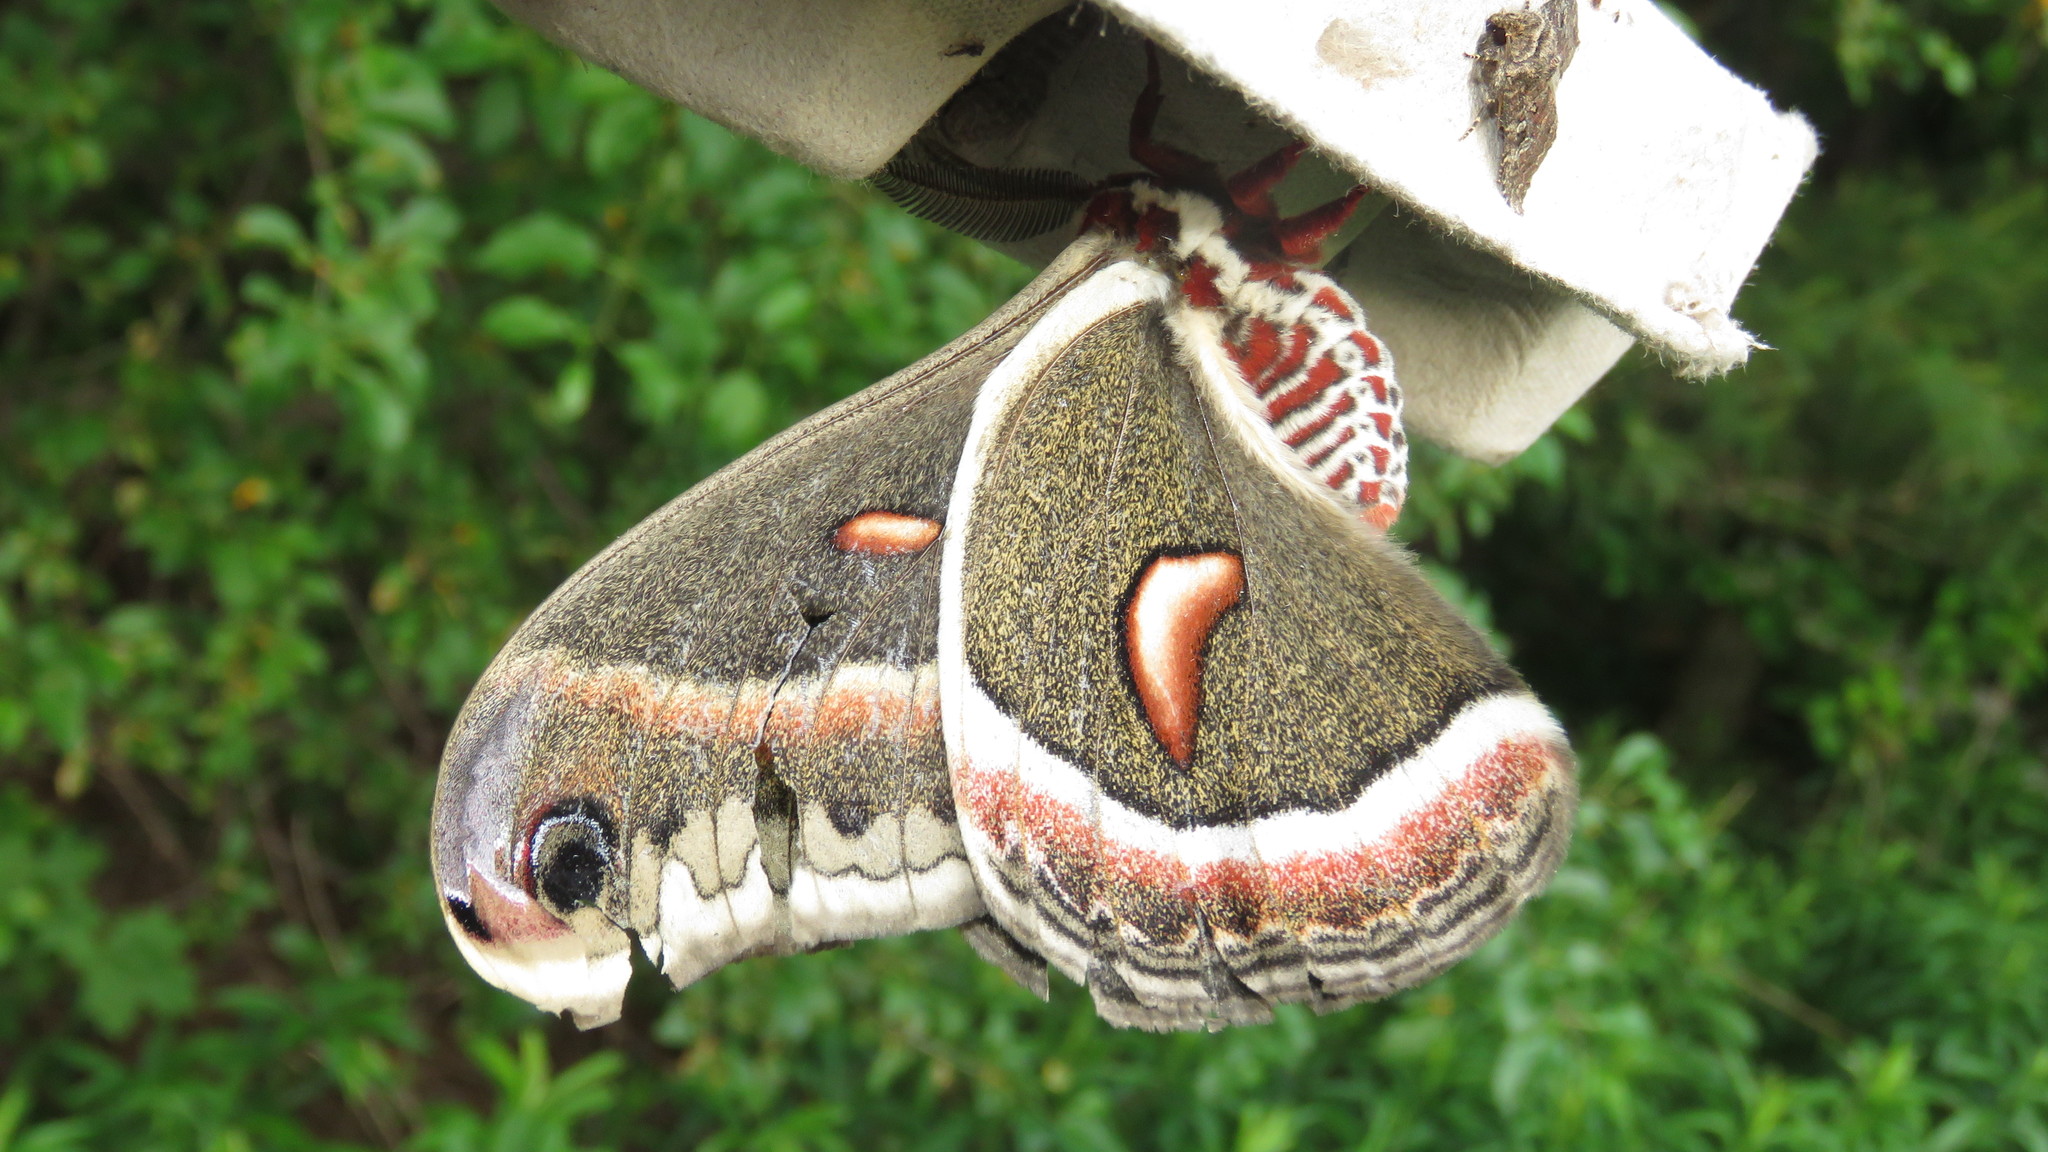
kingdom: Animalia
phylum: Arthropoda
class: Insecta
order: Lepidoptera
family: Saturniidae
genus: Hyalophora
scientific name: Hyalophora cecropia
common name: Cecropia silkmoth
